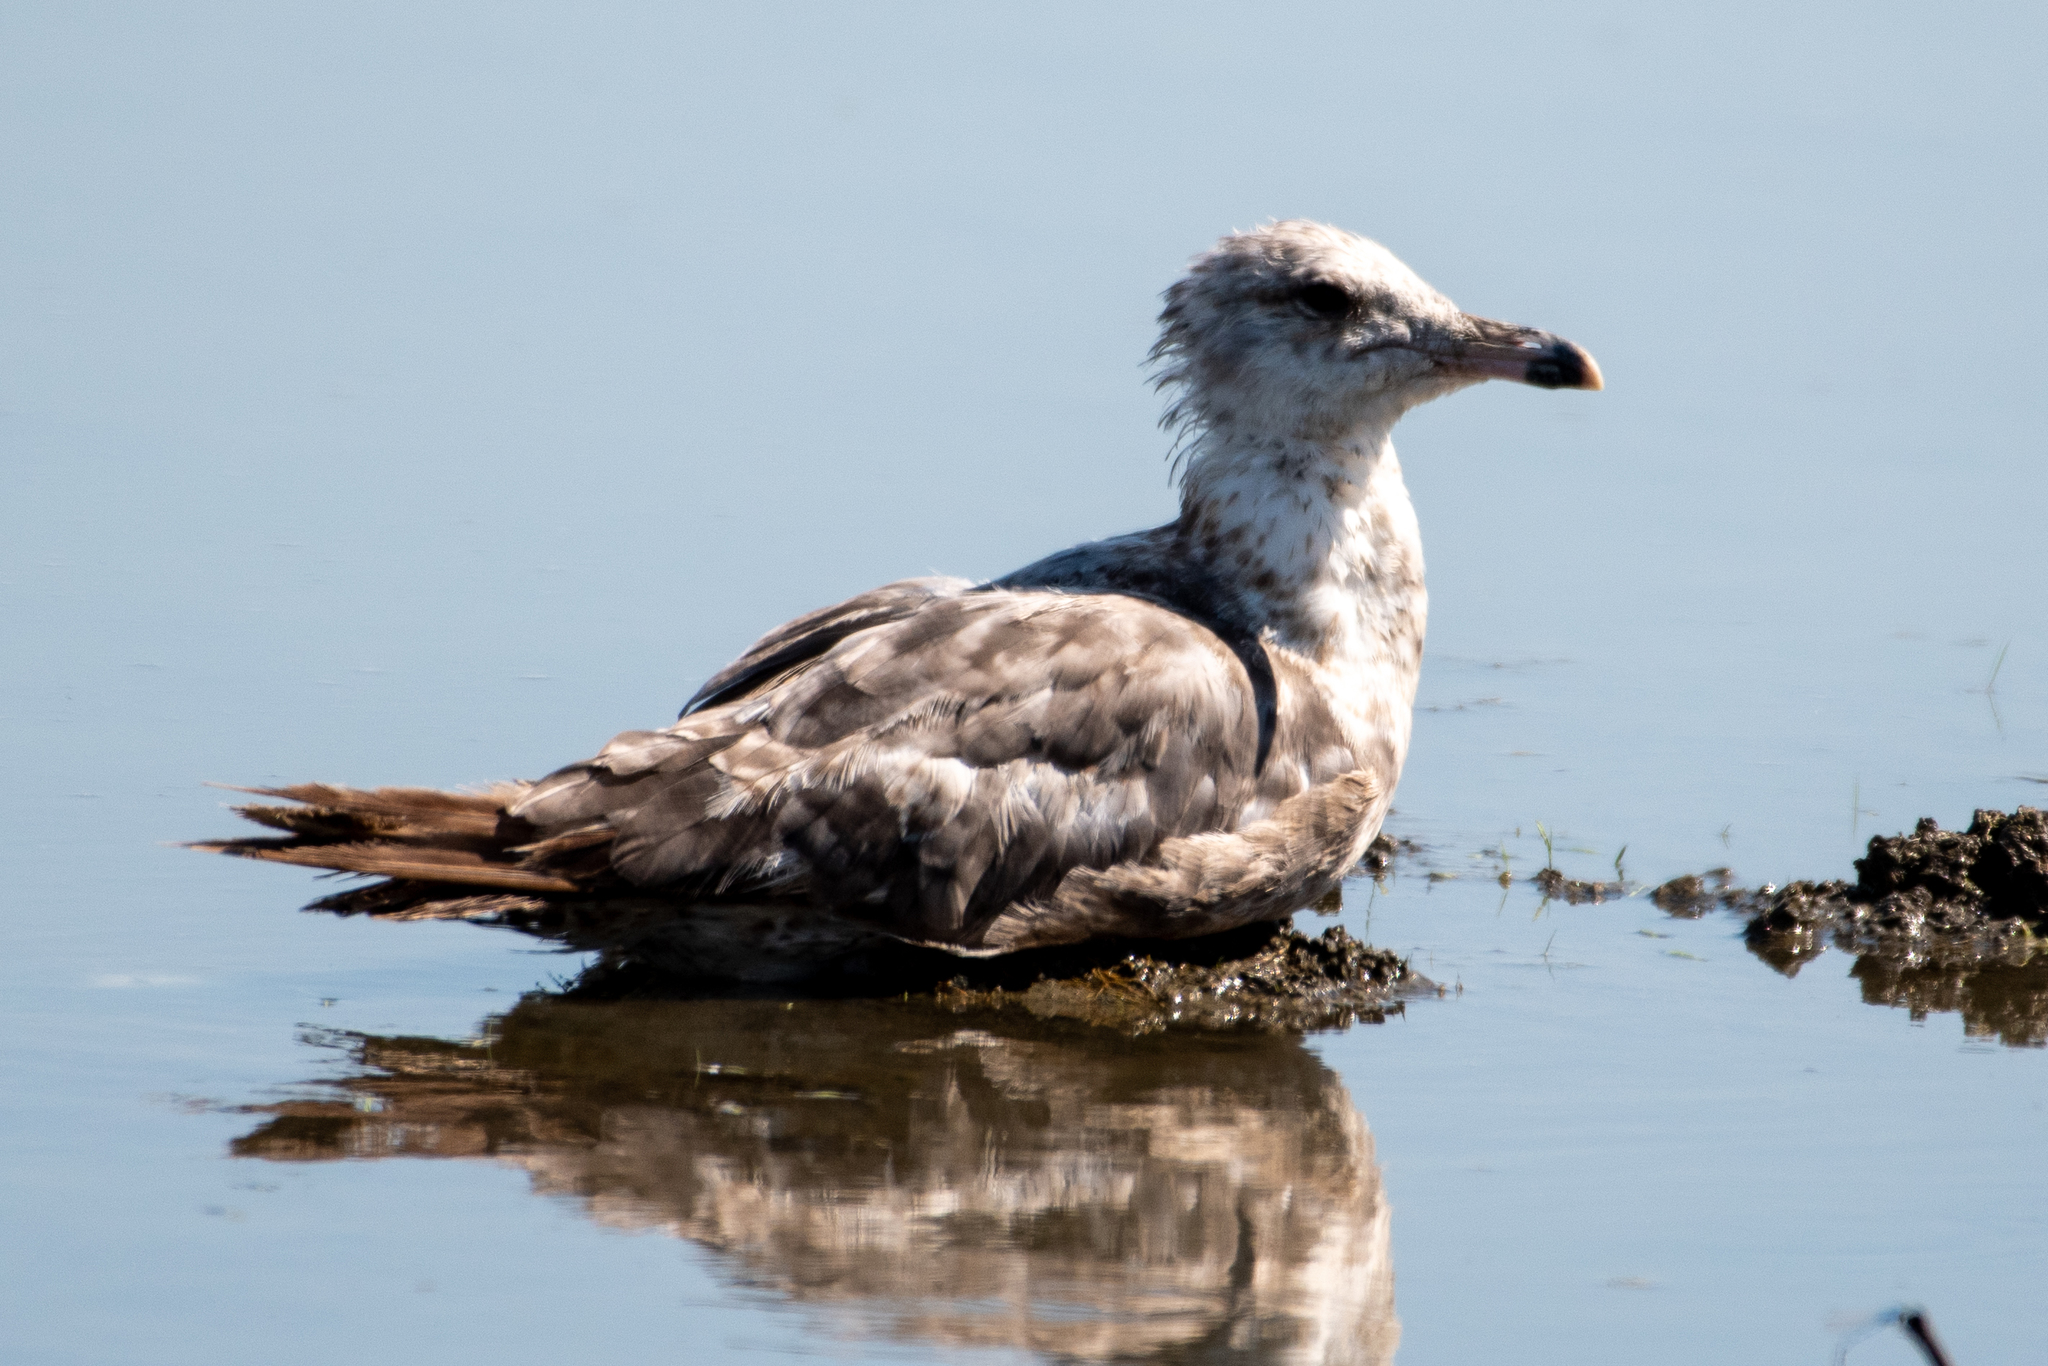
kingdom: Animalia
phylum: Chordata
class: Aves
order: Charadriiformes
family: Laridae
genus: Larus
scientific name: Larus californicus
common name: California gull
